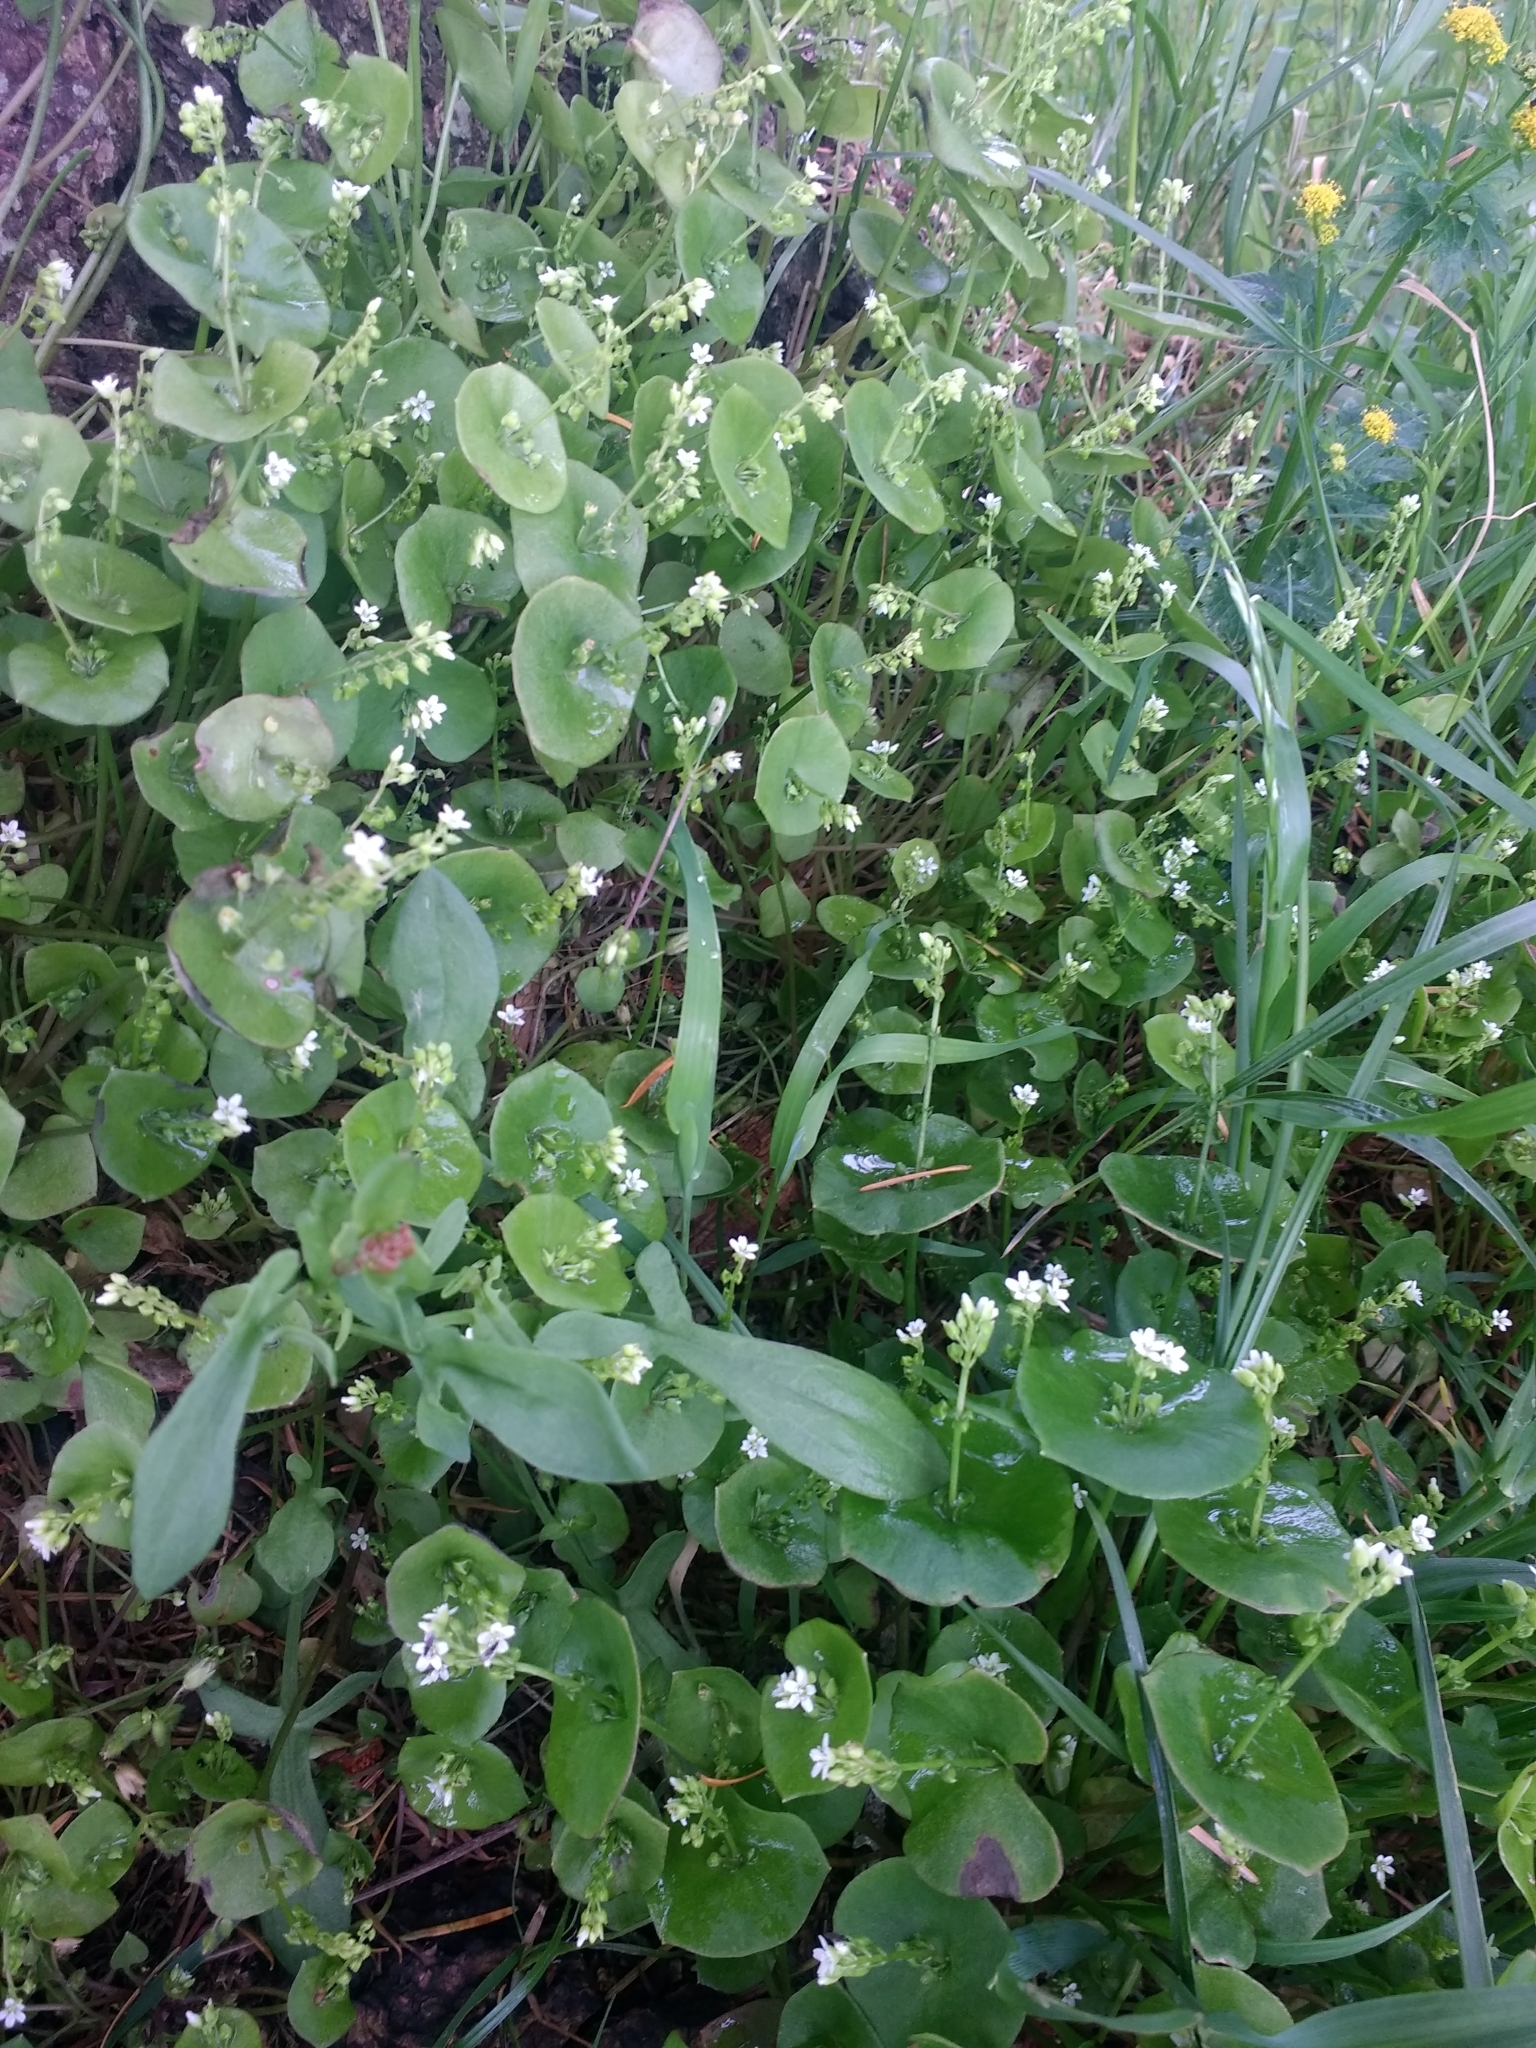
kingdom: Plantae
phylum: Tracheophyta
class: Magnoliopsida
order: Caryophyllales
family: Montiaceae
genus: Claytonia
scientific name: Claytonia perfoliata
